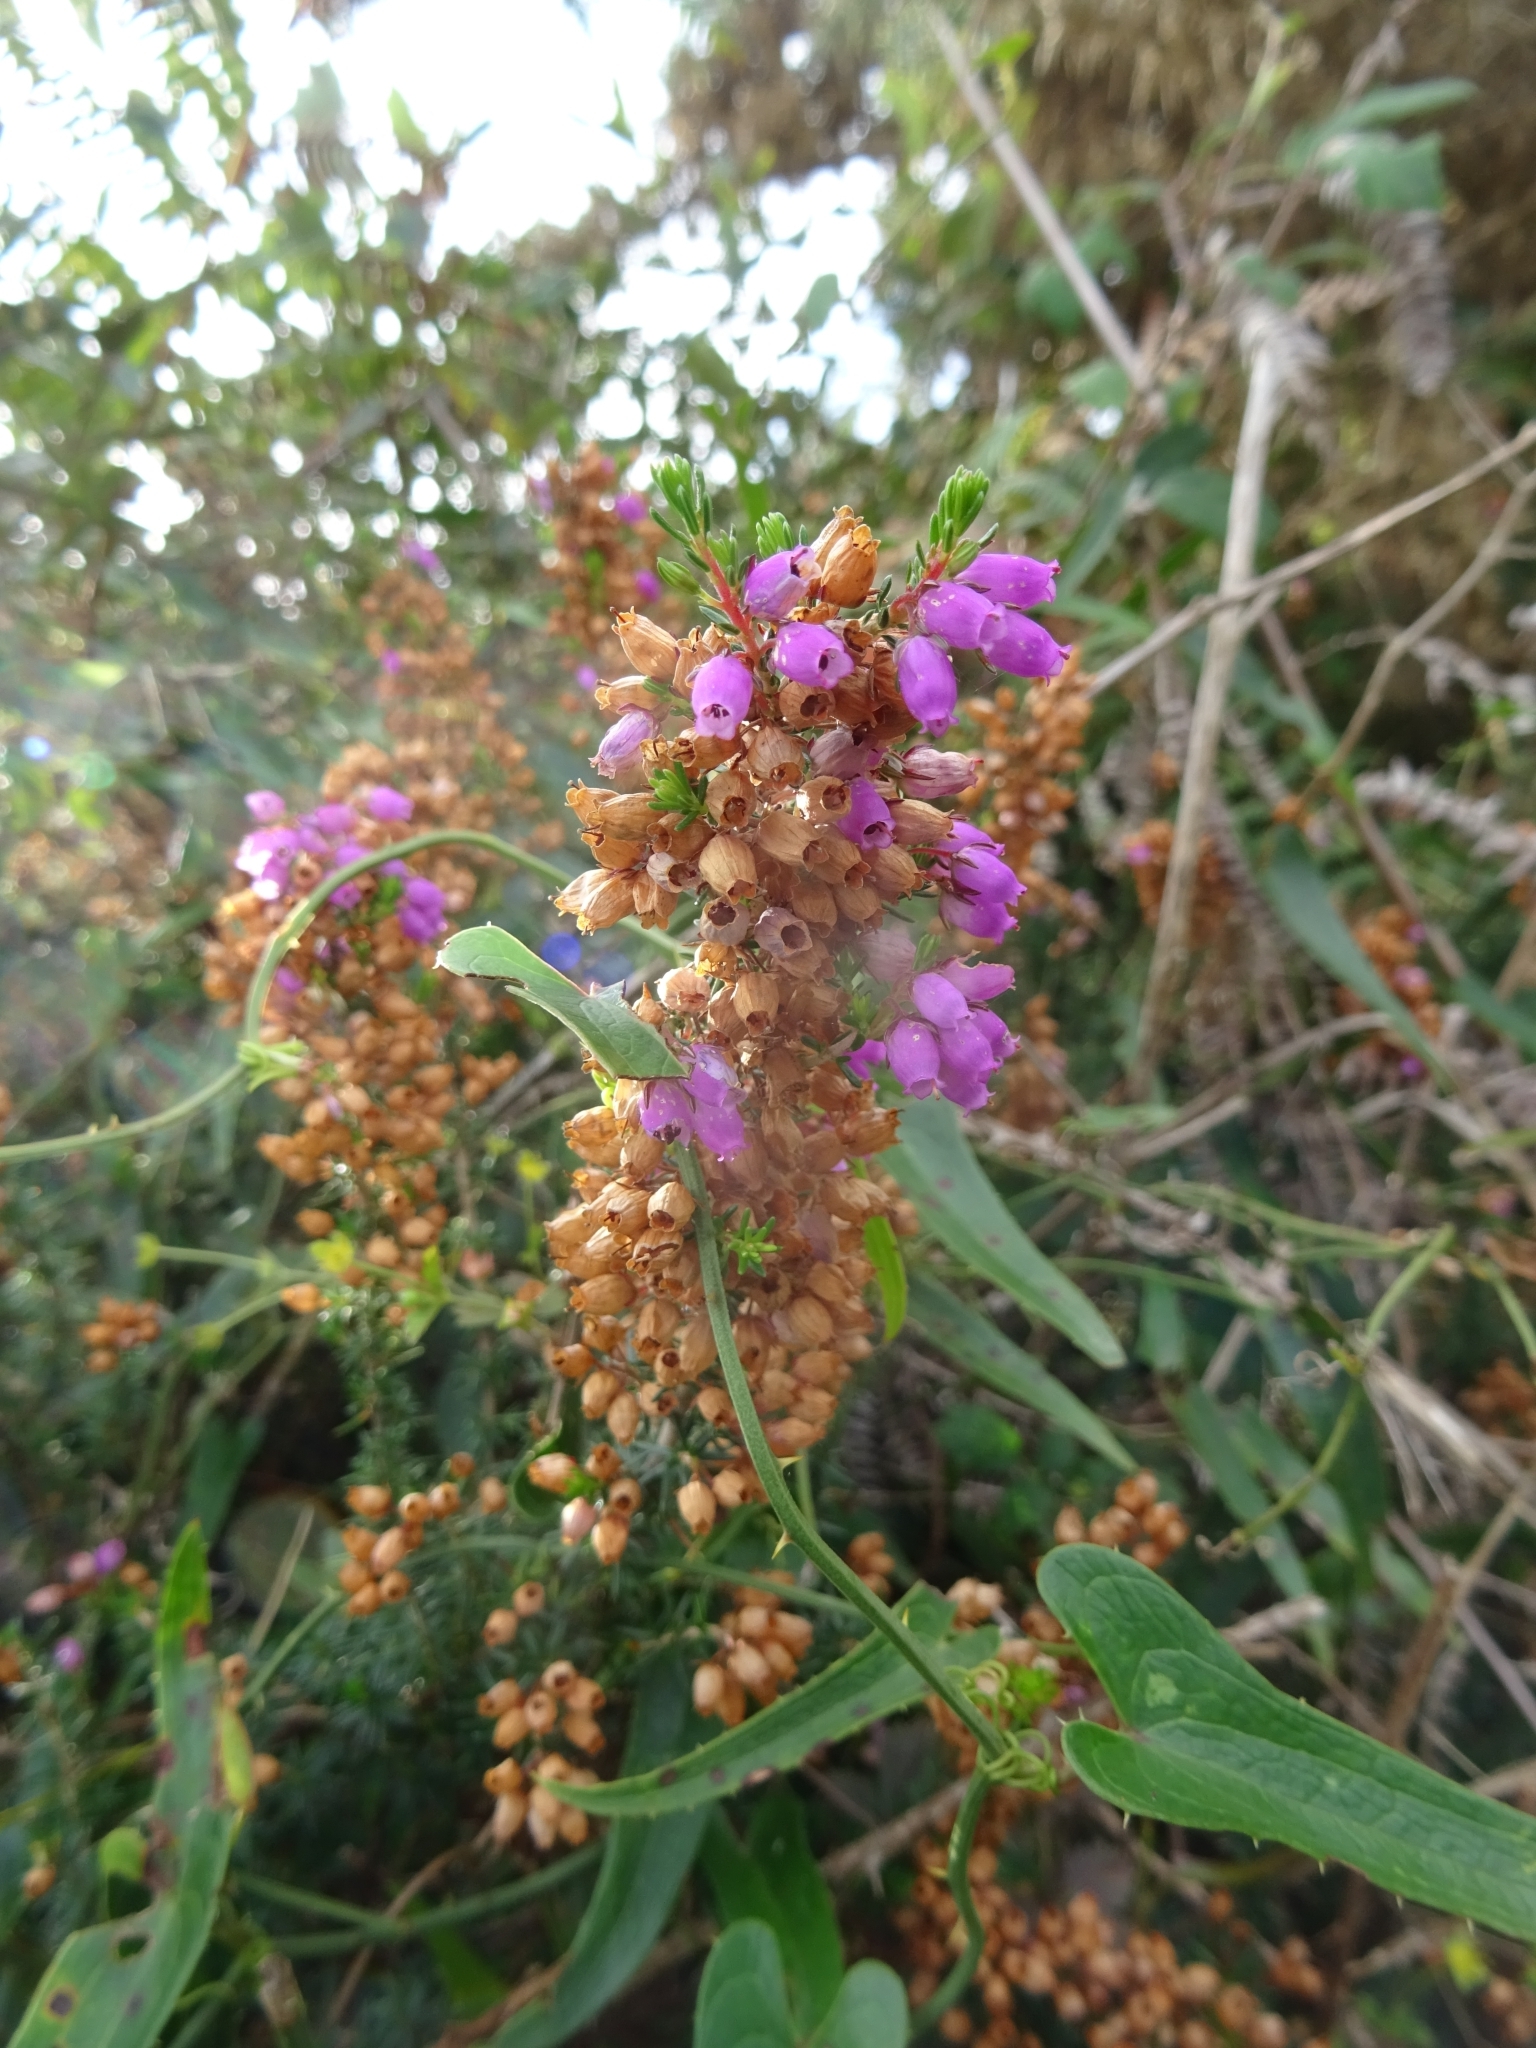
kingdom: Plantae
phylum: Tracheophyta
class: Magnoliopsida
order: Ericales
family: Ericaceae
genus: Erica
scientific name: Erica cinerea
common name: Bell heather
